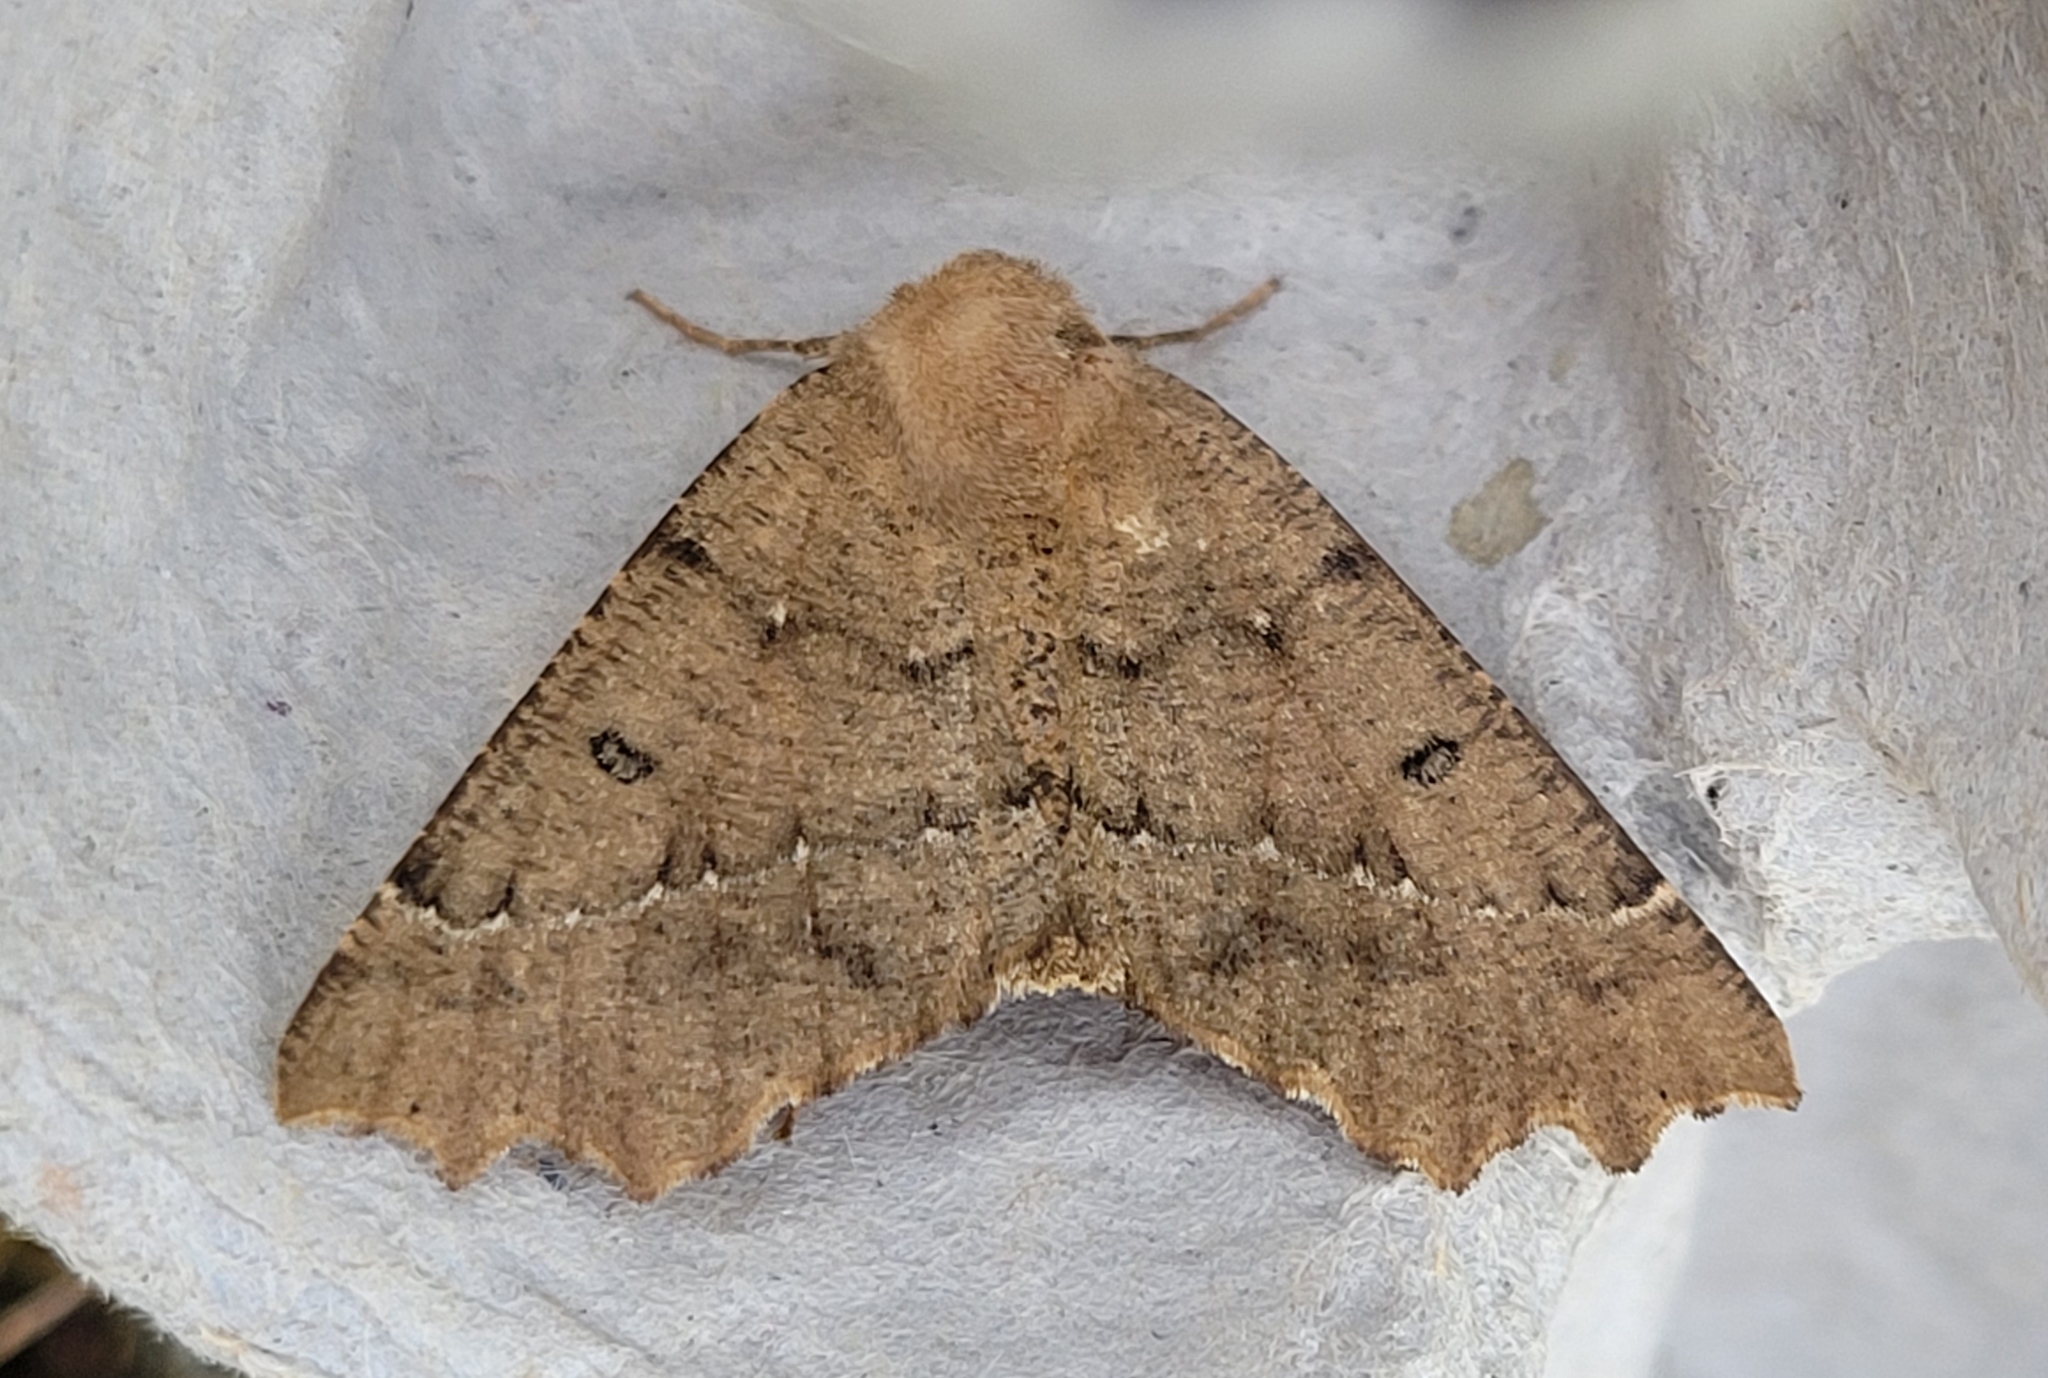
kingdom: Animalia
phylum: Arthropoda
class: Insecta
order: Lepidoptera
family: Geometridae
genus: Odontopera
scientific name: Odontopera bidentata
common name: Scalloped hazel
